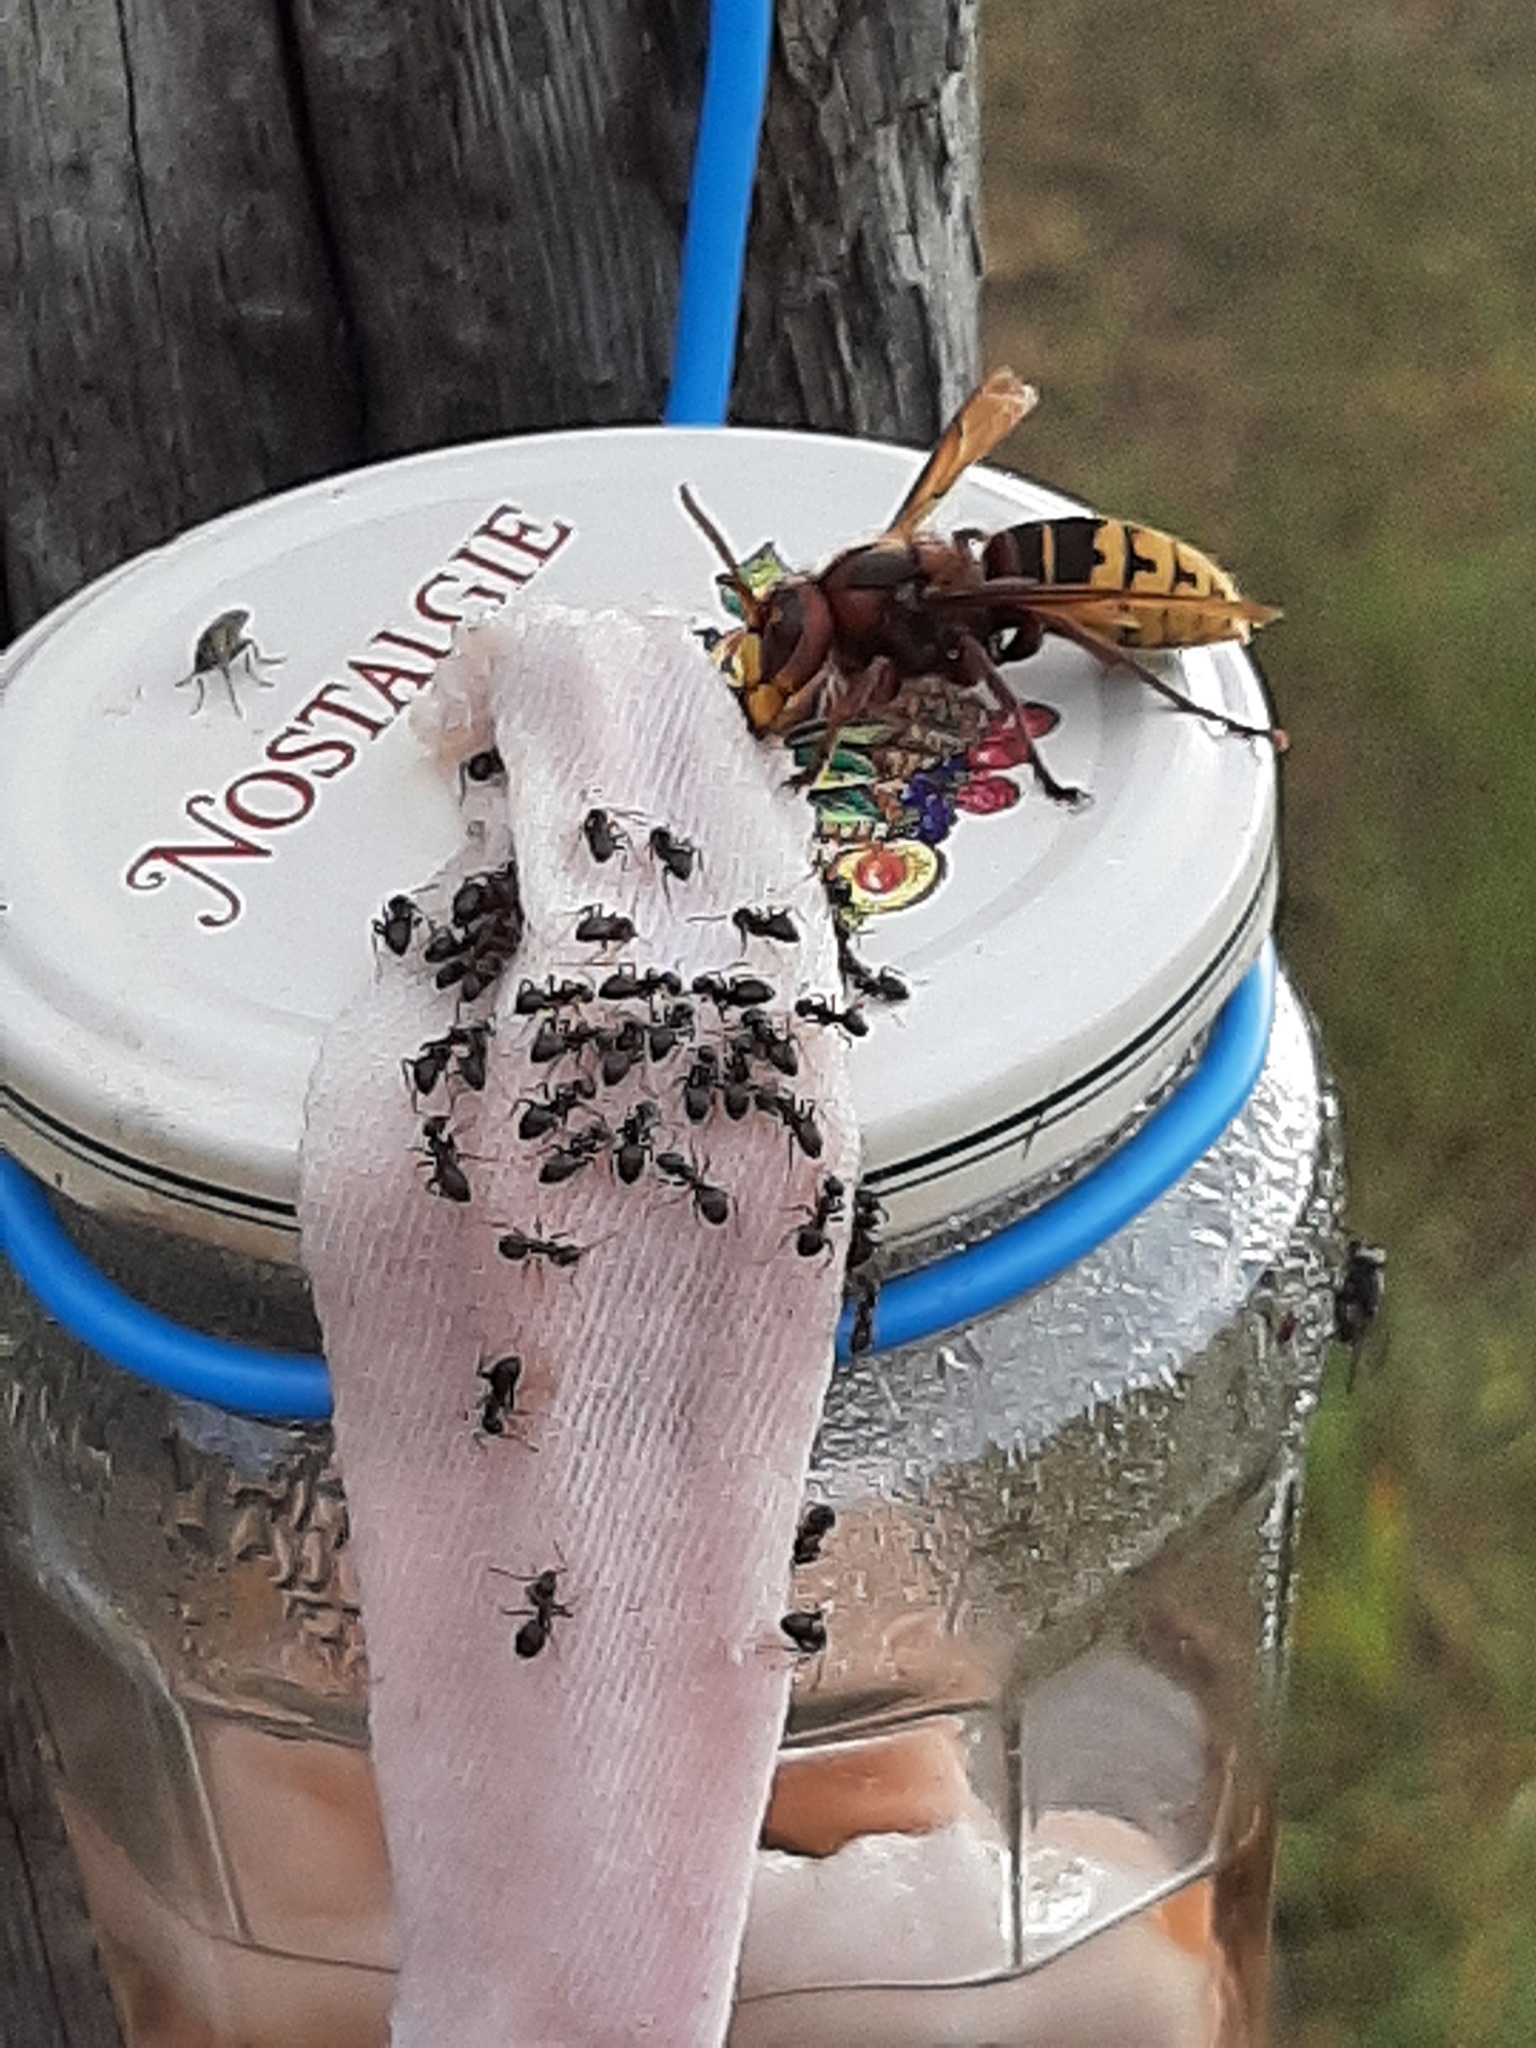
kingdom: Animalia
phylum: Arthropoda
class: Insecta
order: Hymenoptera
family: Vespidae
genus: Vespa
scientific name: Vespa crabro
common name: Hornet
